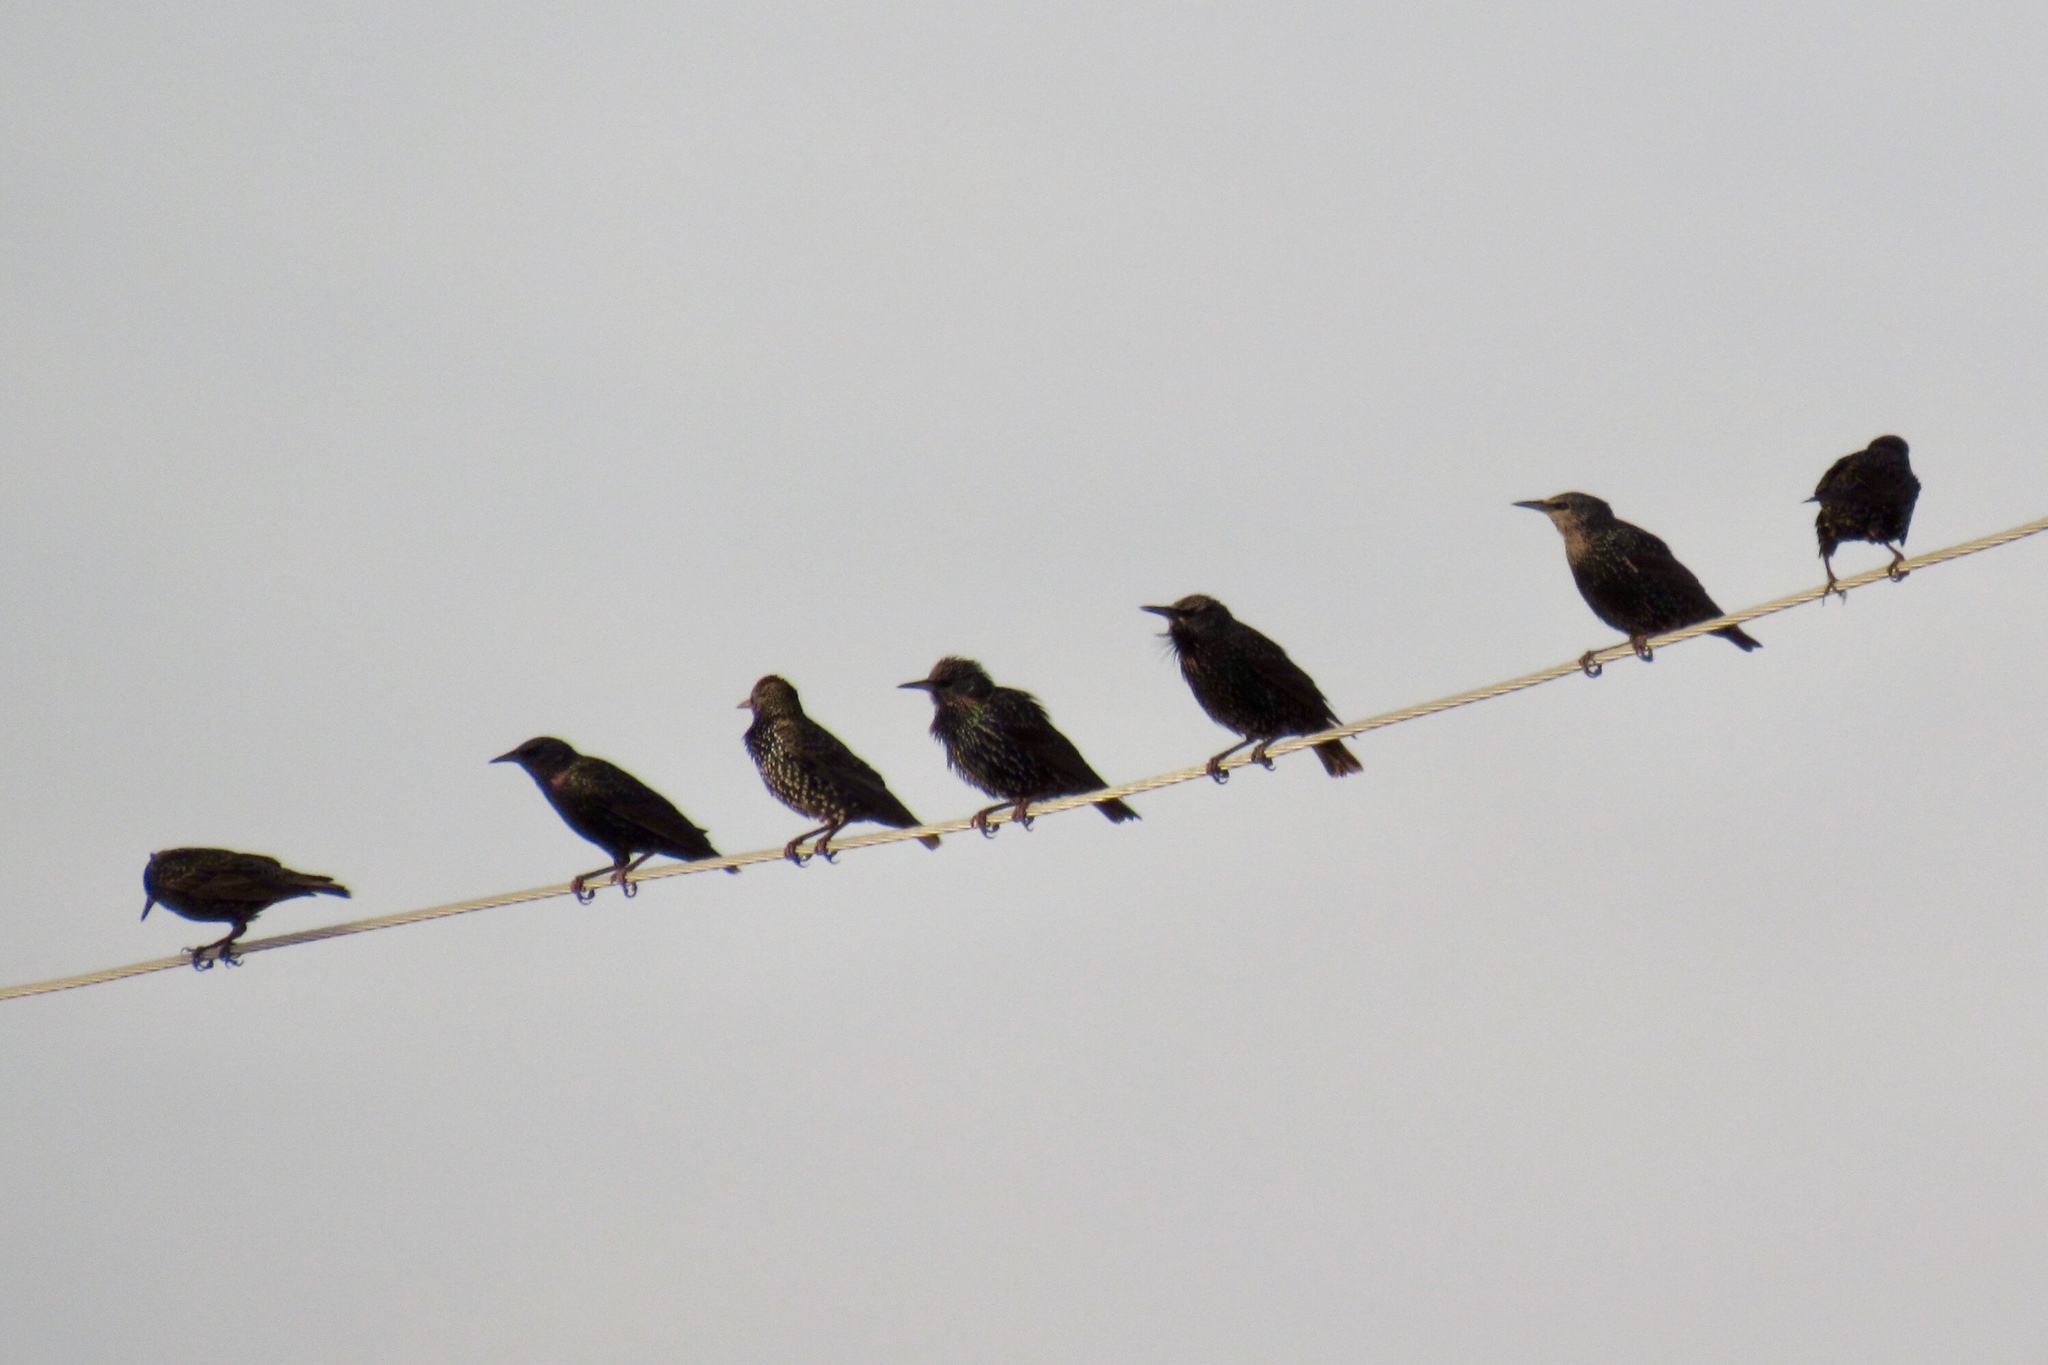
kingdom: Animalia
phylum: Chordata
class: Aves
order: Passeriformes
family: Sturnidae
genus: Sturnus
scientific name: Sturnus vulgaris
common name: Common starling
